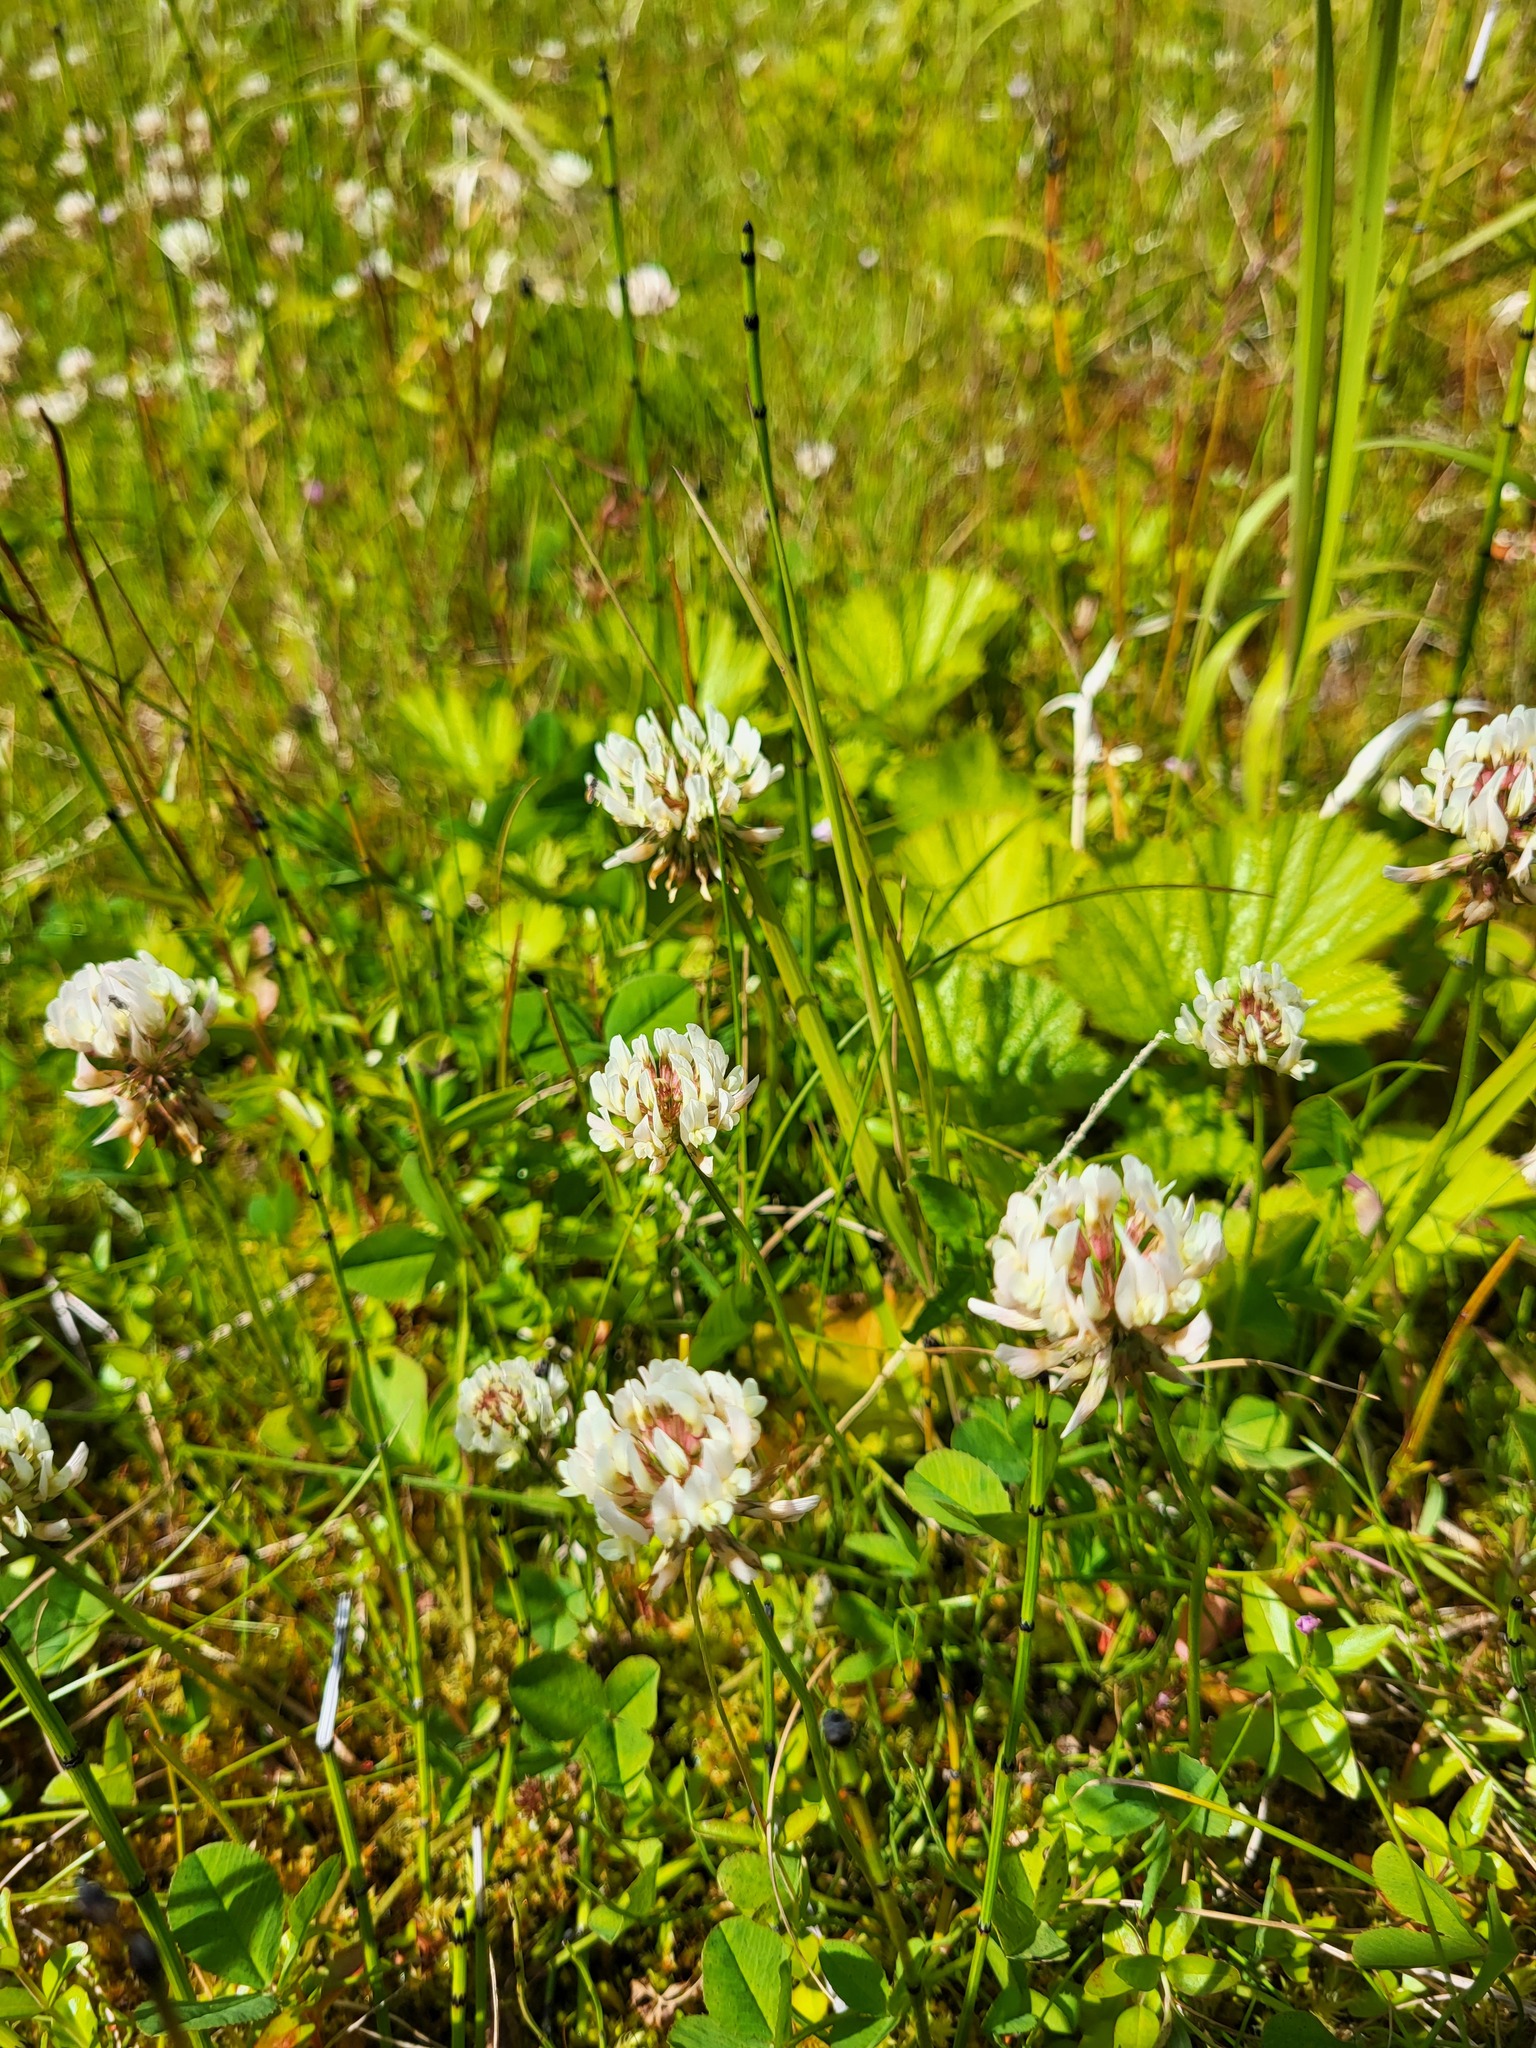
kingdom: Plantae
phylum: Tracheophyta
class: Magnoliopsida
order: Fabales
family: Fabaceae
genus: Trifolium
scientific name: Trifolium repens
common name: White clover
